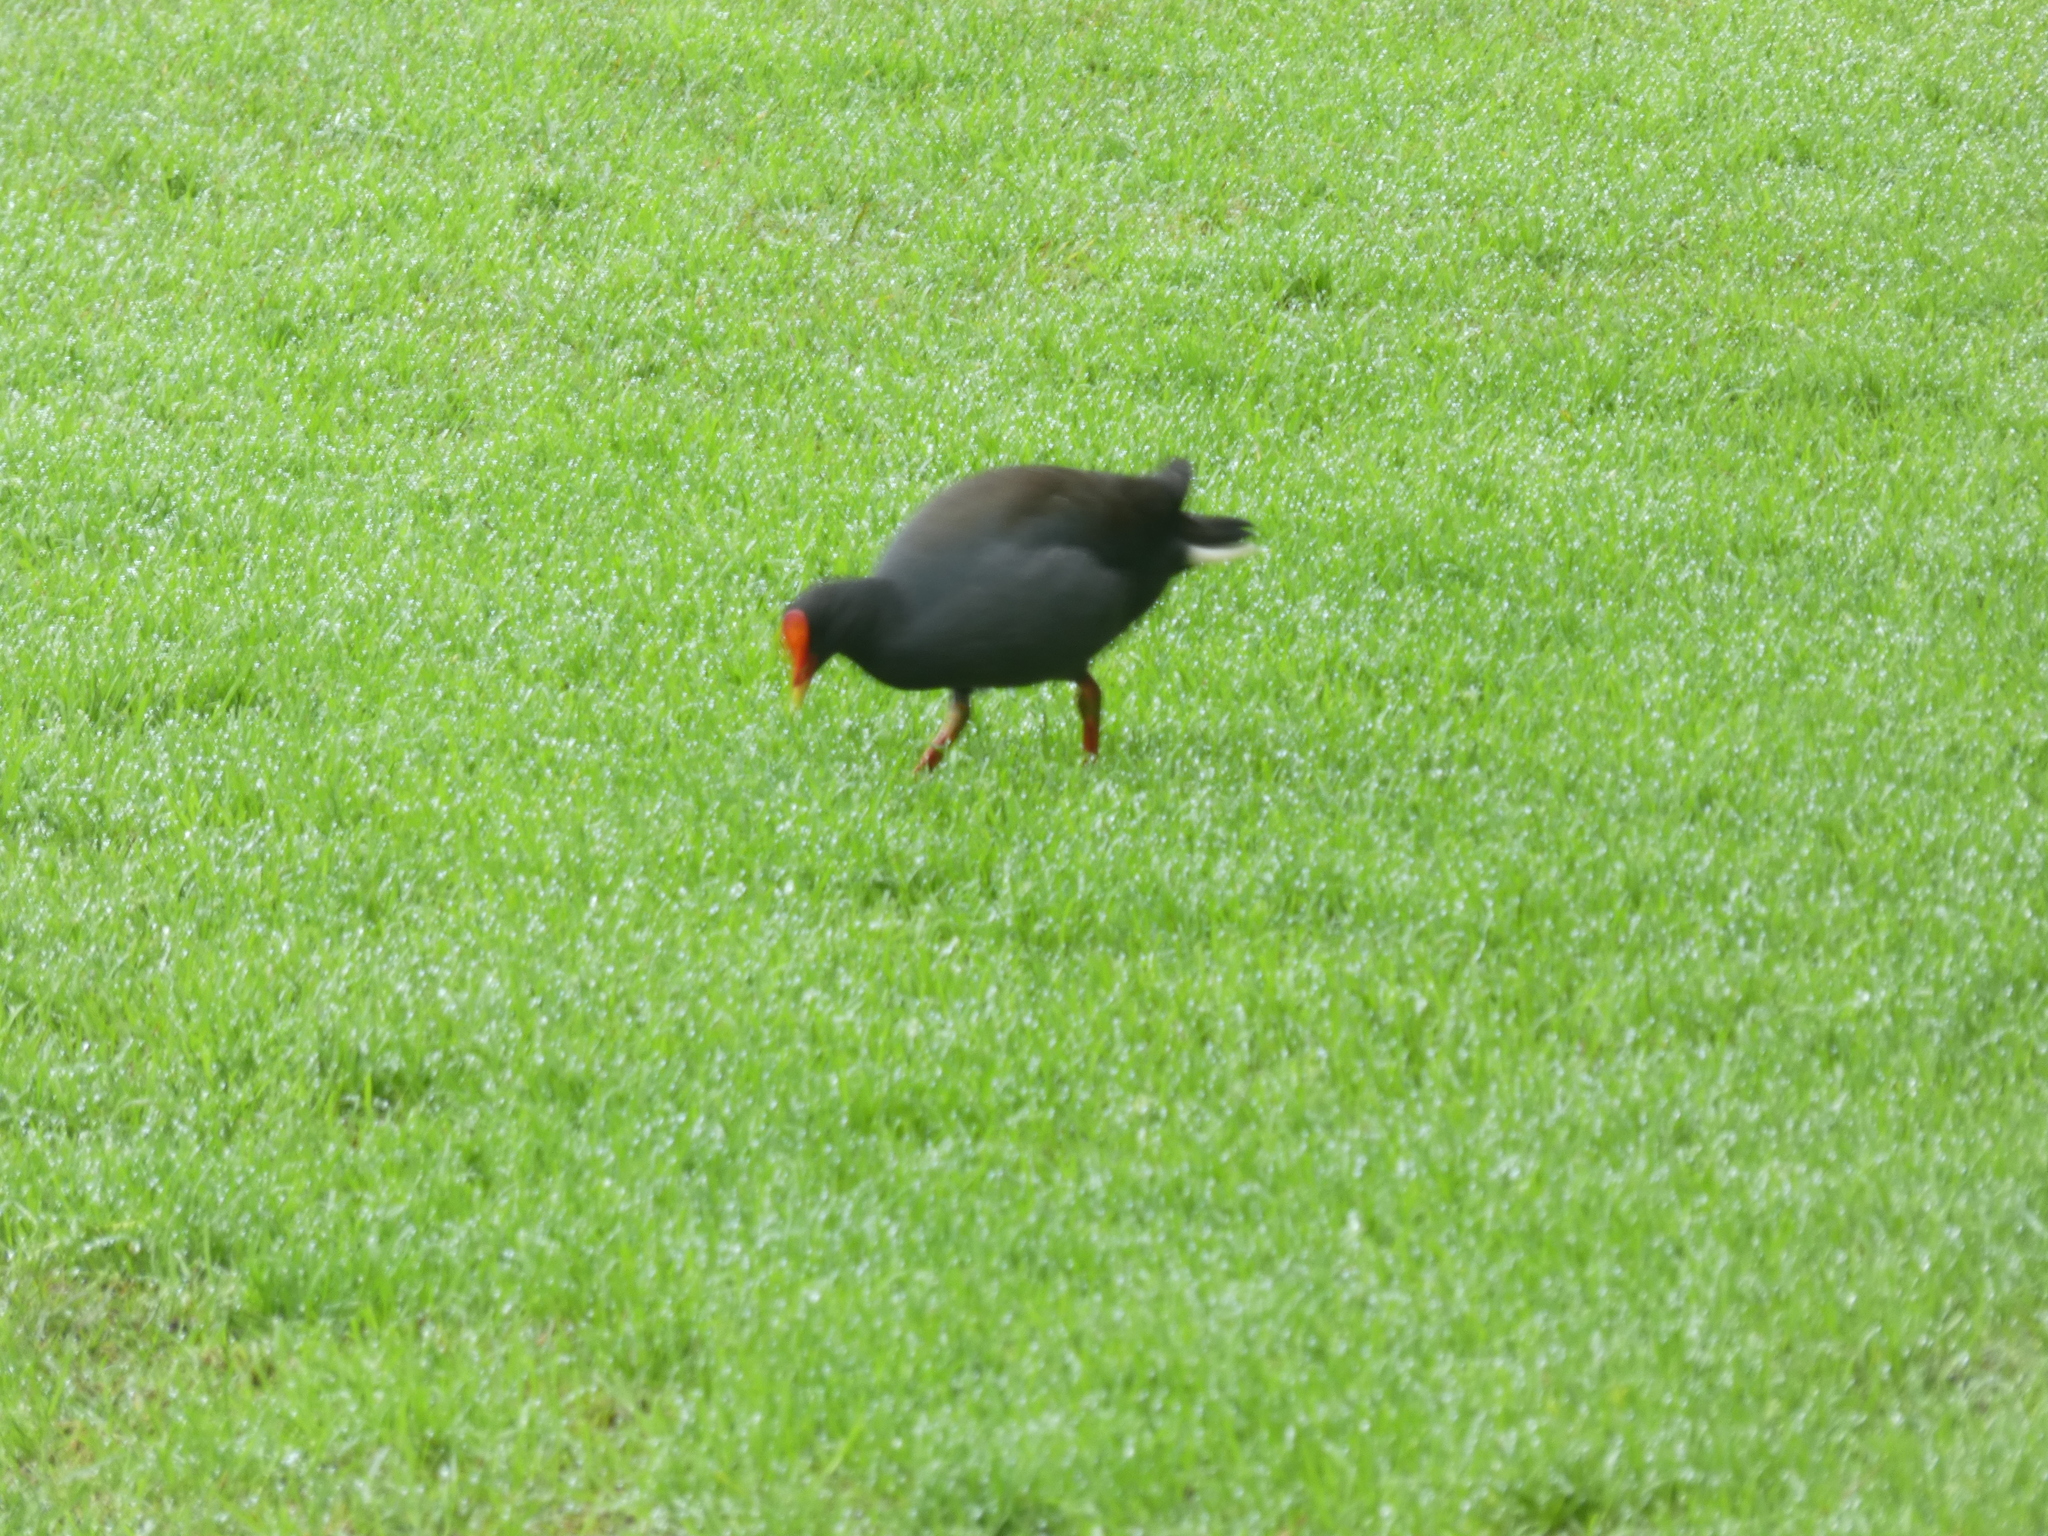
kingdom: Animalia
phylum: Chordata
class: Aves
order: Gruiformes
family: Rallidae
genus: Gallinula
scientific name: Gallinula tenebrosa
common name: Dusky moorhen
